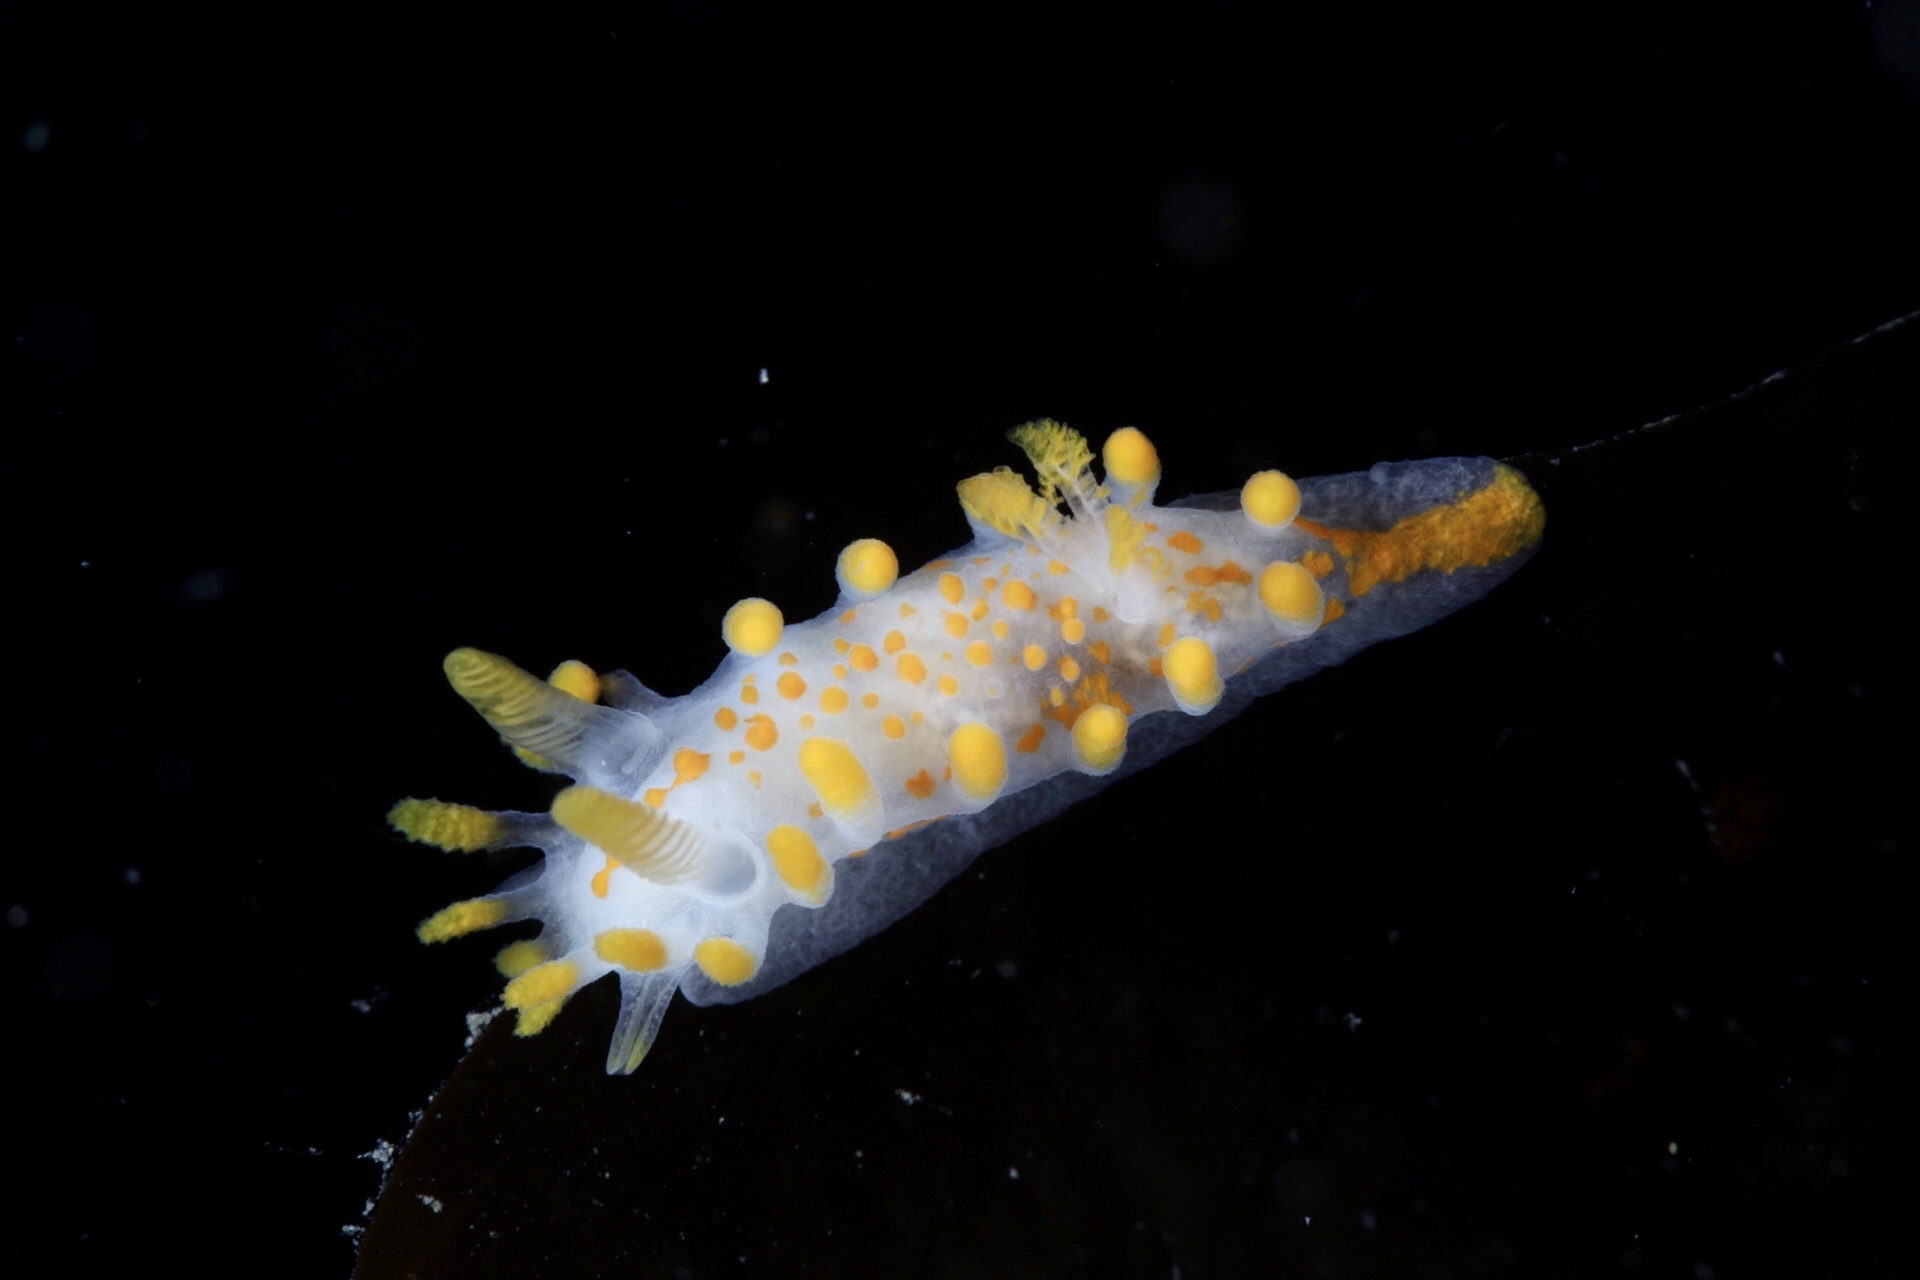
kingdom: Animalia
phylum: Mollusca
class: Gastropoda
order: Nudibranchia
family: Polyceridae
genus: Limacia
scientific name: Limacia clavigera
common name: Orange-clubbed sea slug
